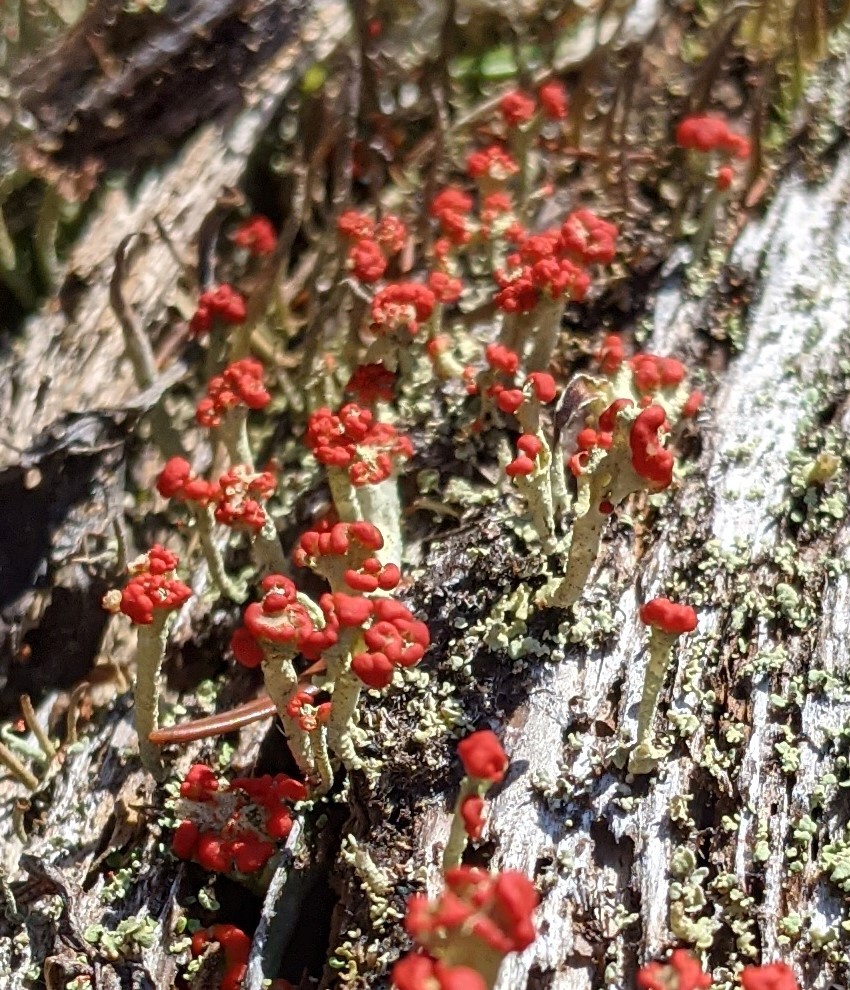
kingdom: Fungi
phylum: Ascomycota
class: Lecanoromycetes
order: Lecanorales
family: Cladoniaceae
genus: Cladonia
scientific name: Cladonia cristatella
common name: British soldier lichen
